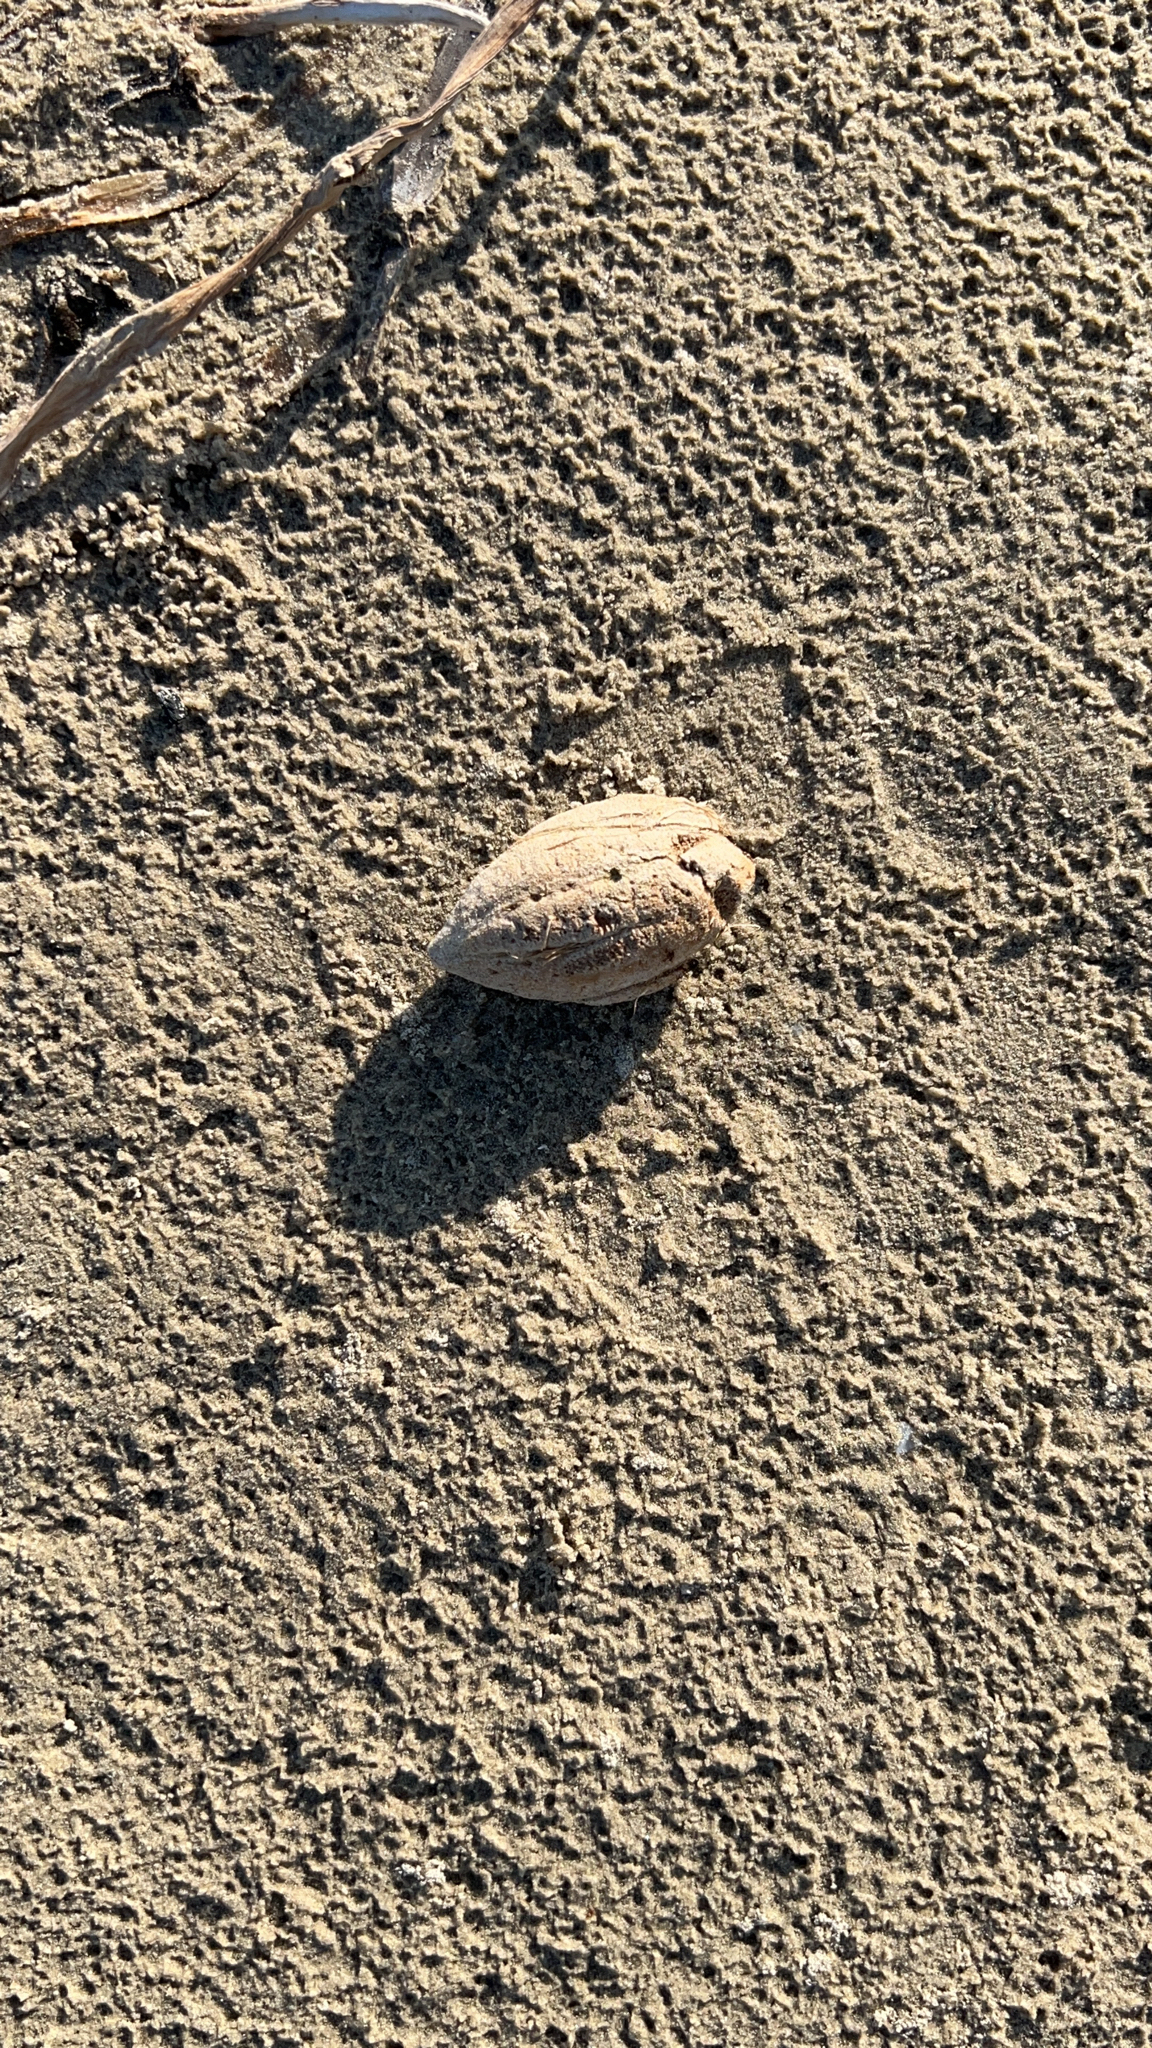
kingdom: Plantae
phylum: Tracheophyta
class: Magnoliopsida
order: Myrtales
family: Combretaceae
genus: Terminalia
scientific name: Terminalia catappa
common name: Tropical almond
